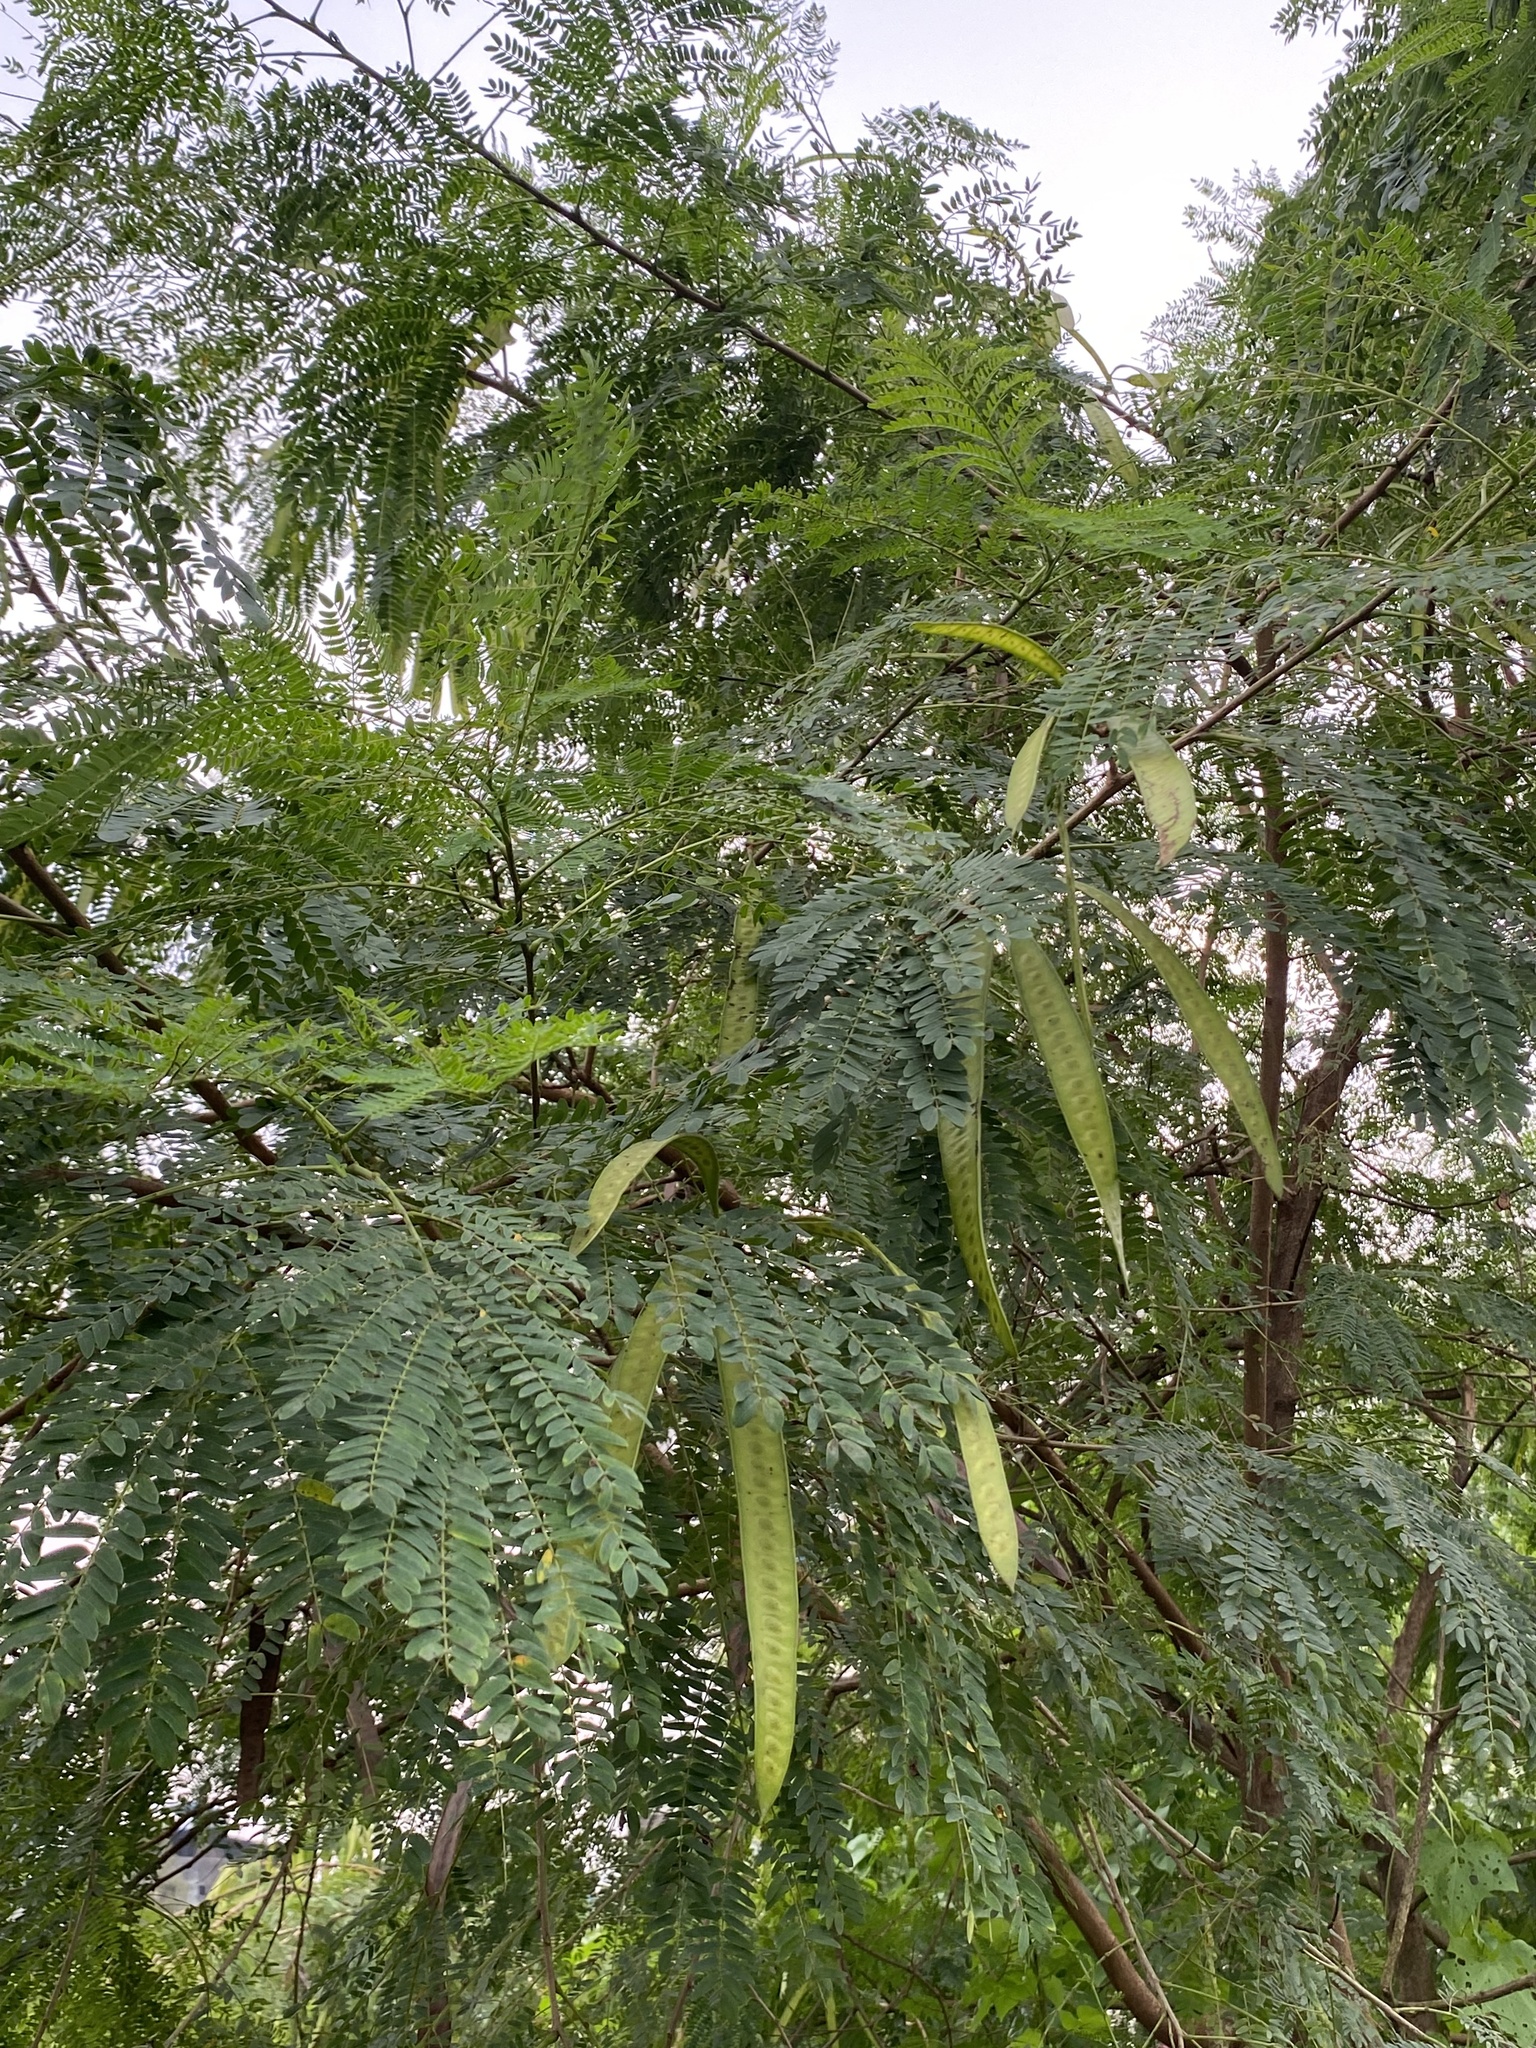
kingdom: Plantae
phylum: Tracheophyta
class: Magnoliopsida
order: Fabales
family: Fabaceae
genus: Leucaena
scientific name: Leucaena leucocephala
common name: White leadtree
